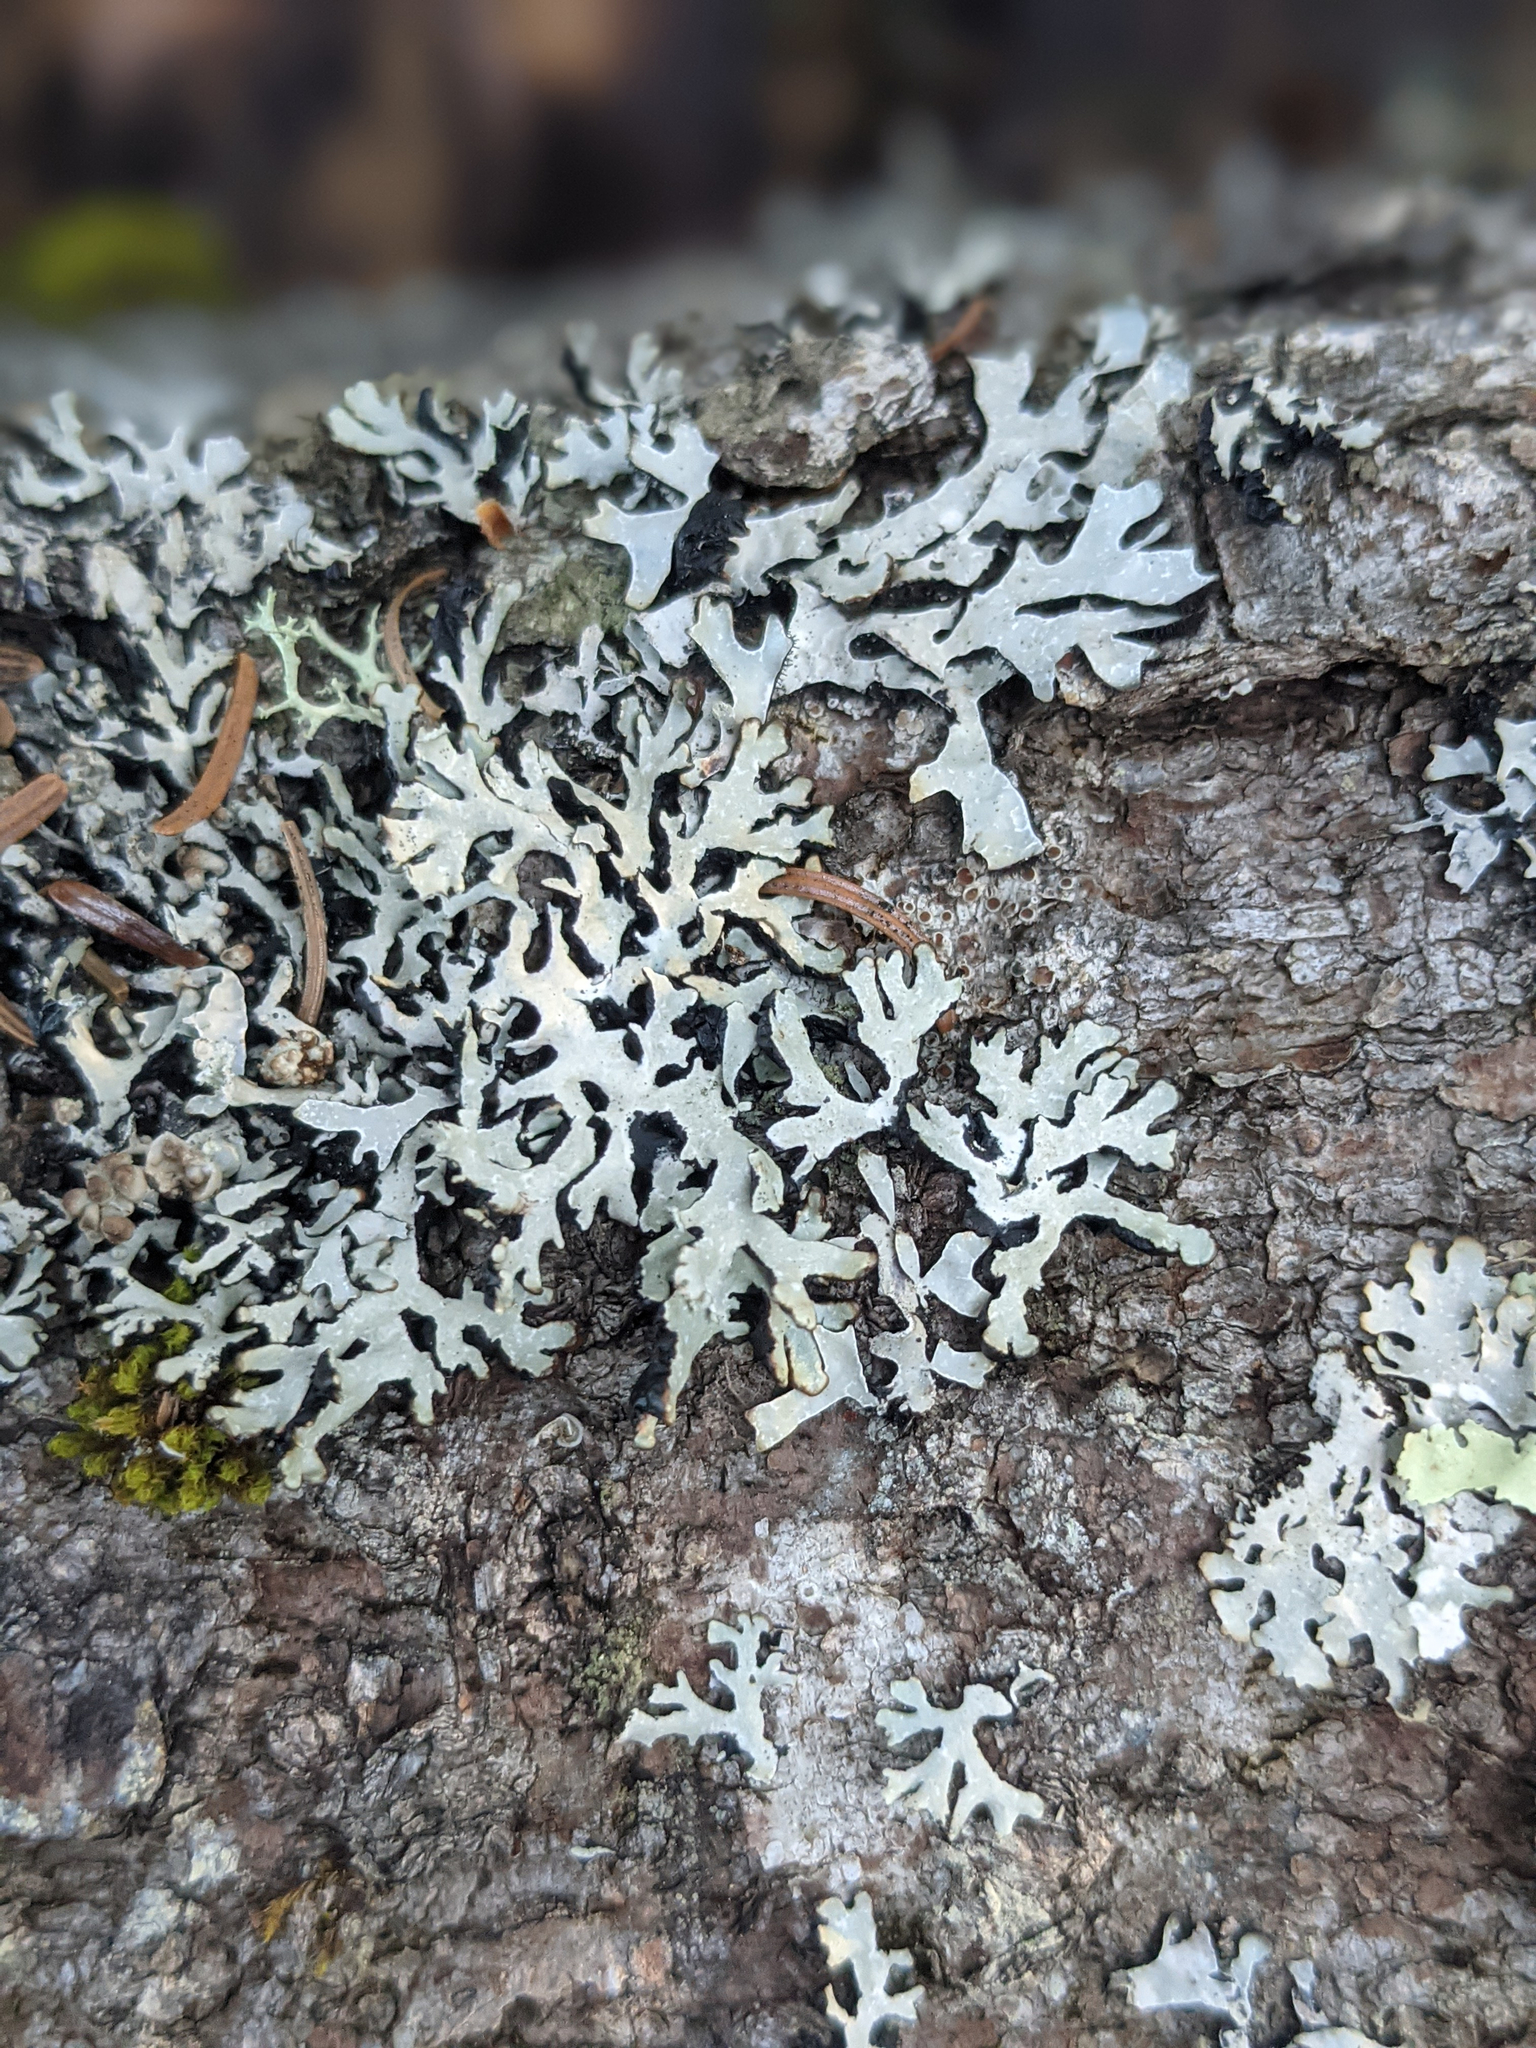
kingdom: Fungi
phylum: Ascomycota
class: Lecanoromycetes
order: Lecanorales
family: Parmeliaceae
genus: Parmelia
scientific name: Parmelia sulcata
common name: Netted shield lichen
